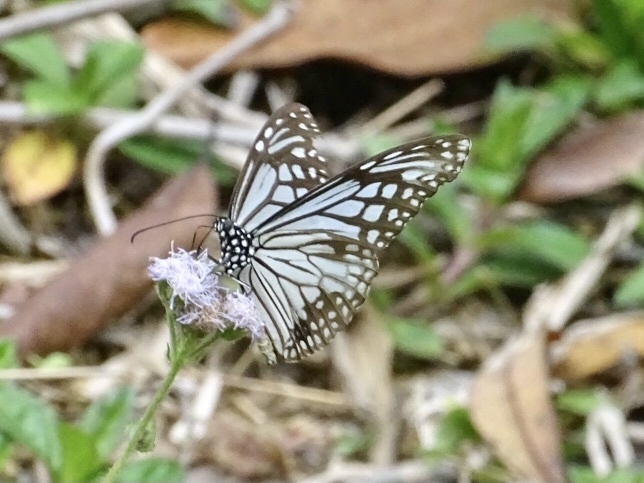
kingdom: Animalia
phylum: Arthropoda
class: Insecta
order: Lepidoptera
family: Nymphalidae
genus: Parantica
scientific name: Parantica aglea
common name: Glassy tiger
